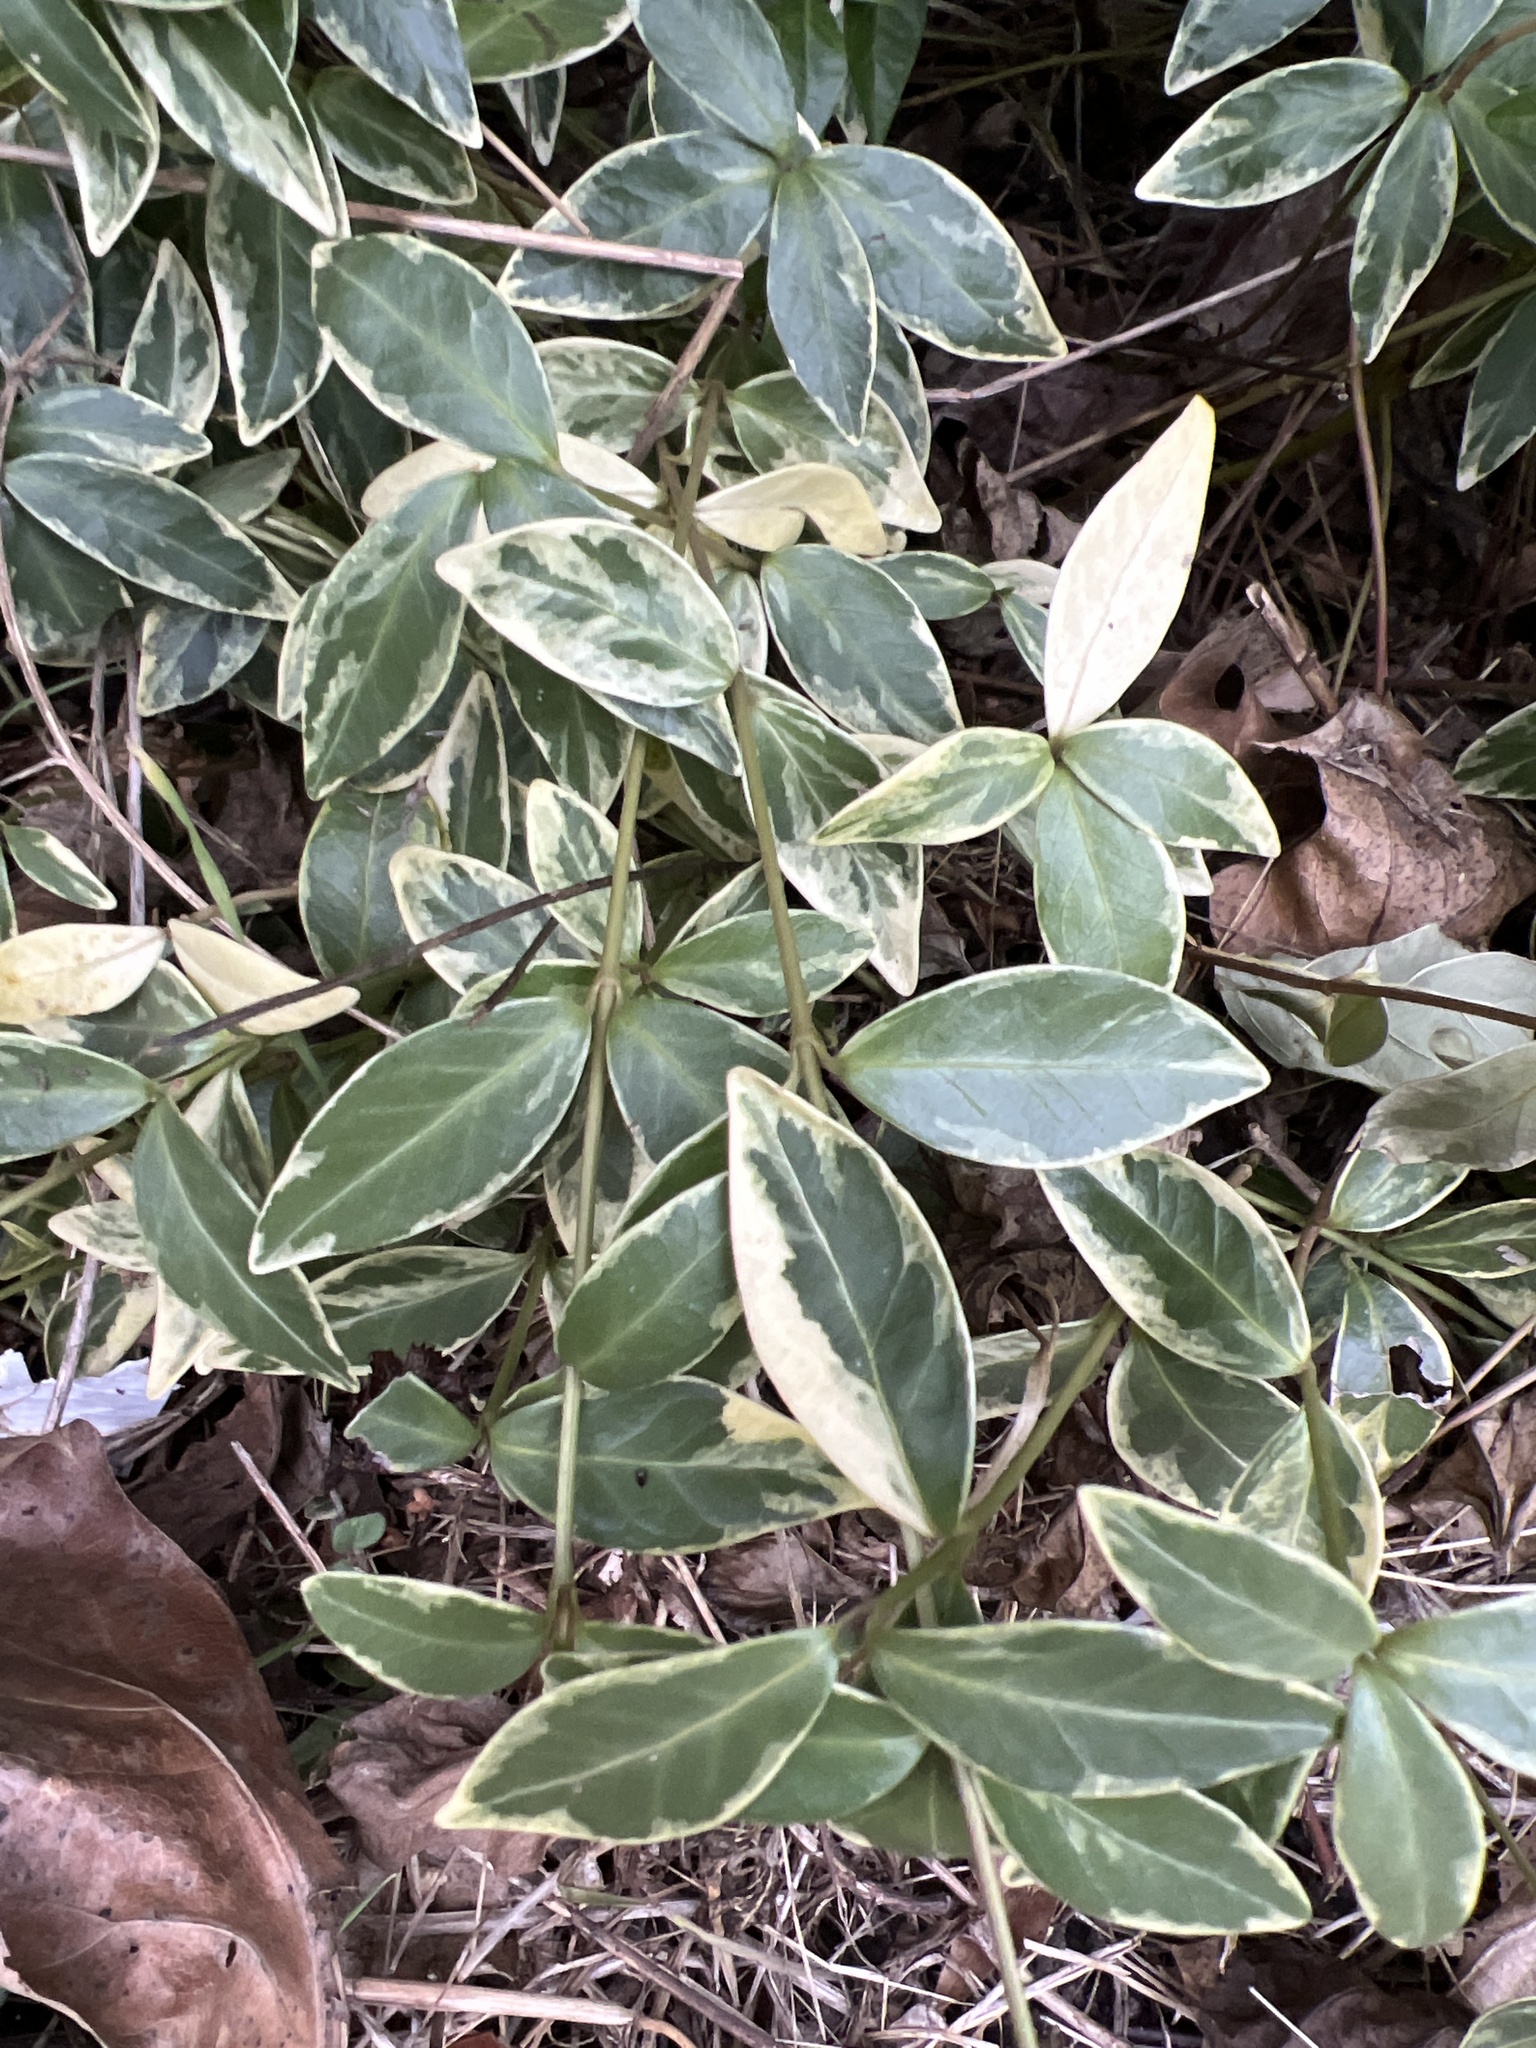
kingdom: Plantae
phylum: Tracheophyta
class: Magnoliopsida
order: Gentianales
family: Apocynaceae
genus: Vinca
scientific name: Vinca minor
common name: Lesser periwinkle
